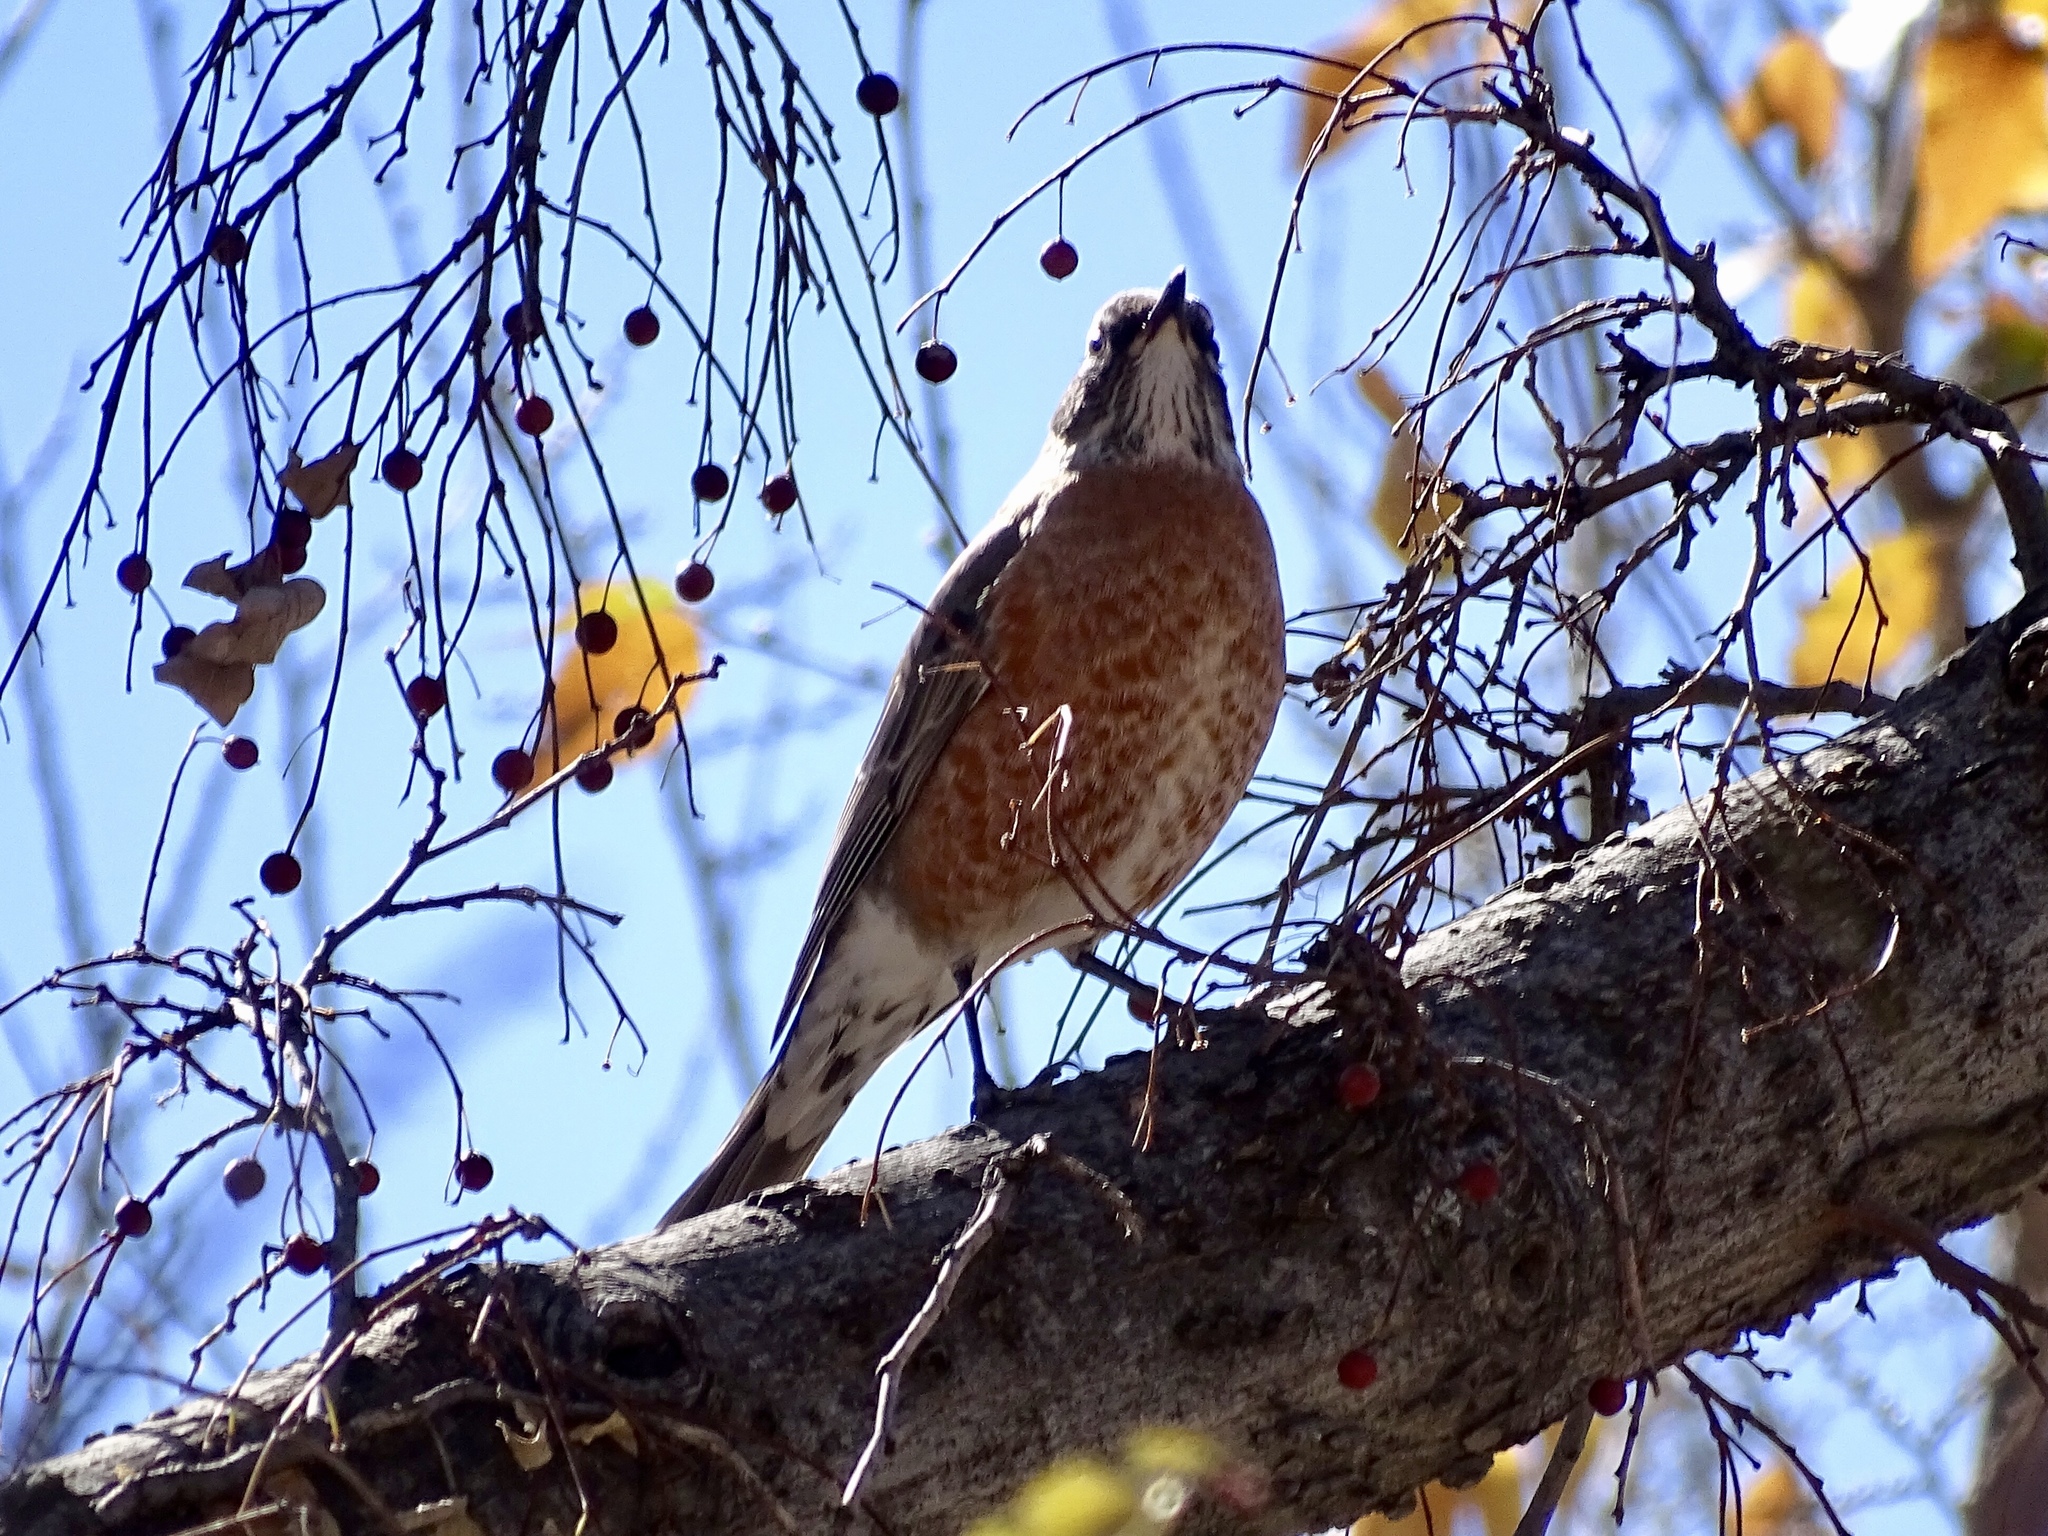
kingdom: Animalia
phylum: Chordata
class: Aves
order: Passeriformes
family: Turdidae
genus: Turdus
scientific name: Turdus migratorius
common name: American robin
